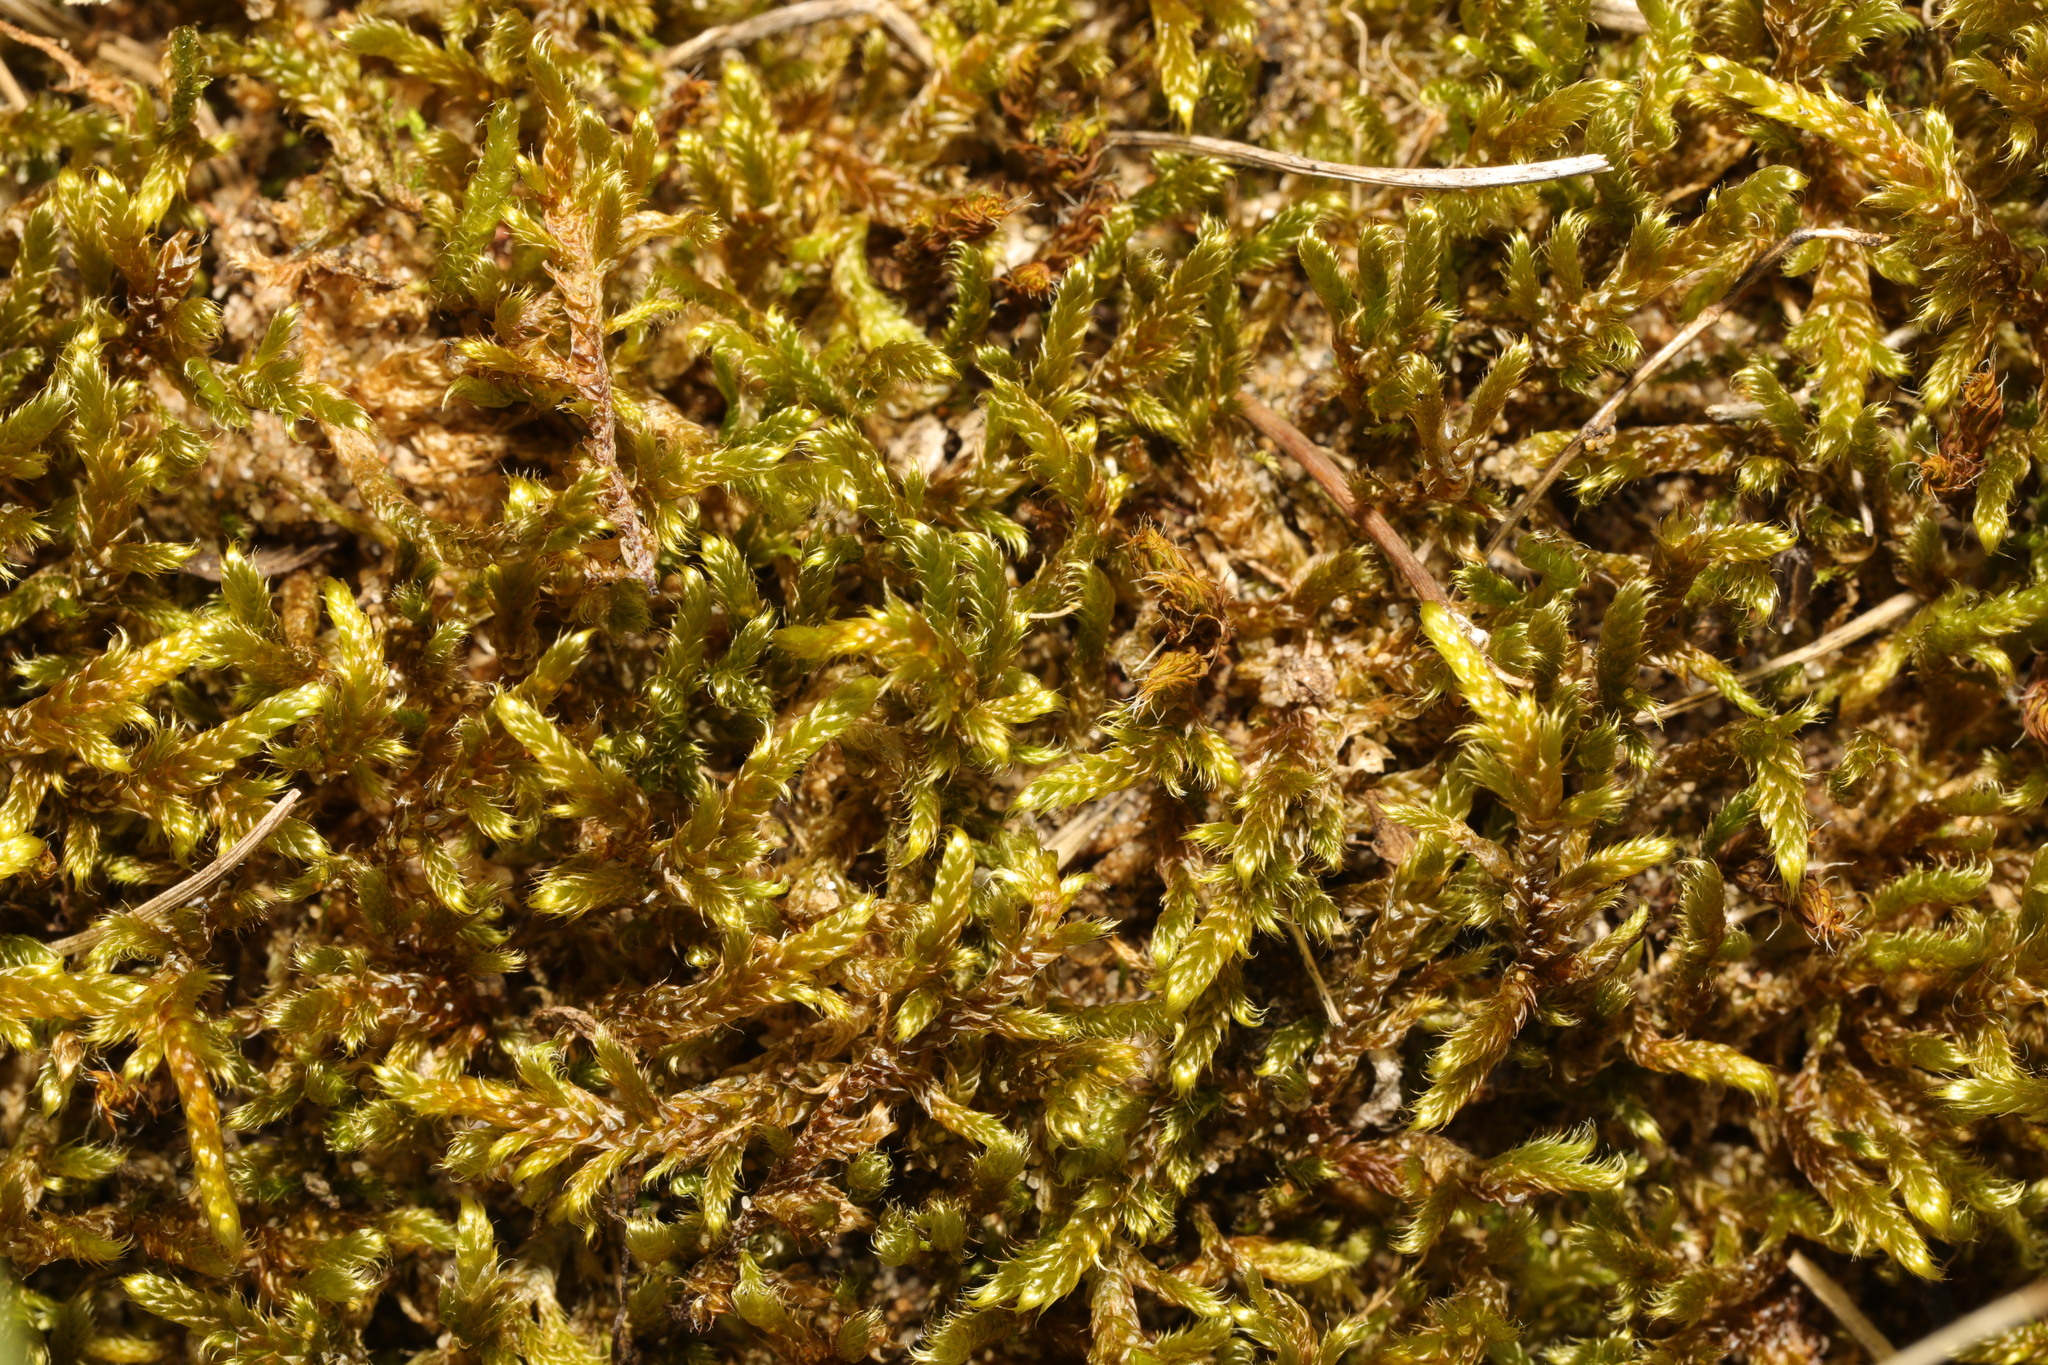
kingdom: Plantae
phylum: Bryophyta
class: Bryopsida
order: Hypnales
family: Hypnaceae
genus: Hypnum
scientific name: Hypnum cupressiforme
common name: Cypress-leaved plait-moss
